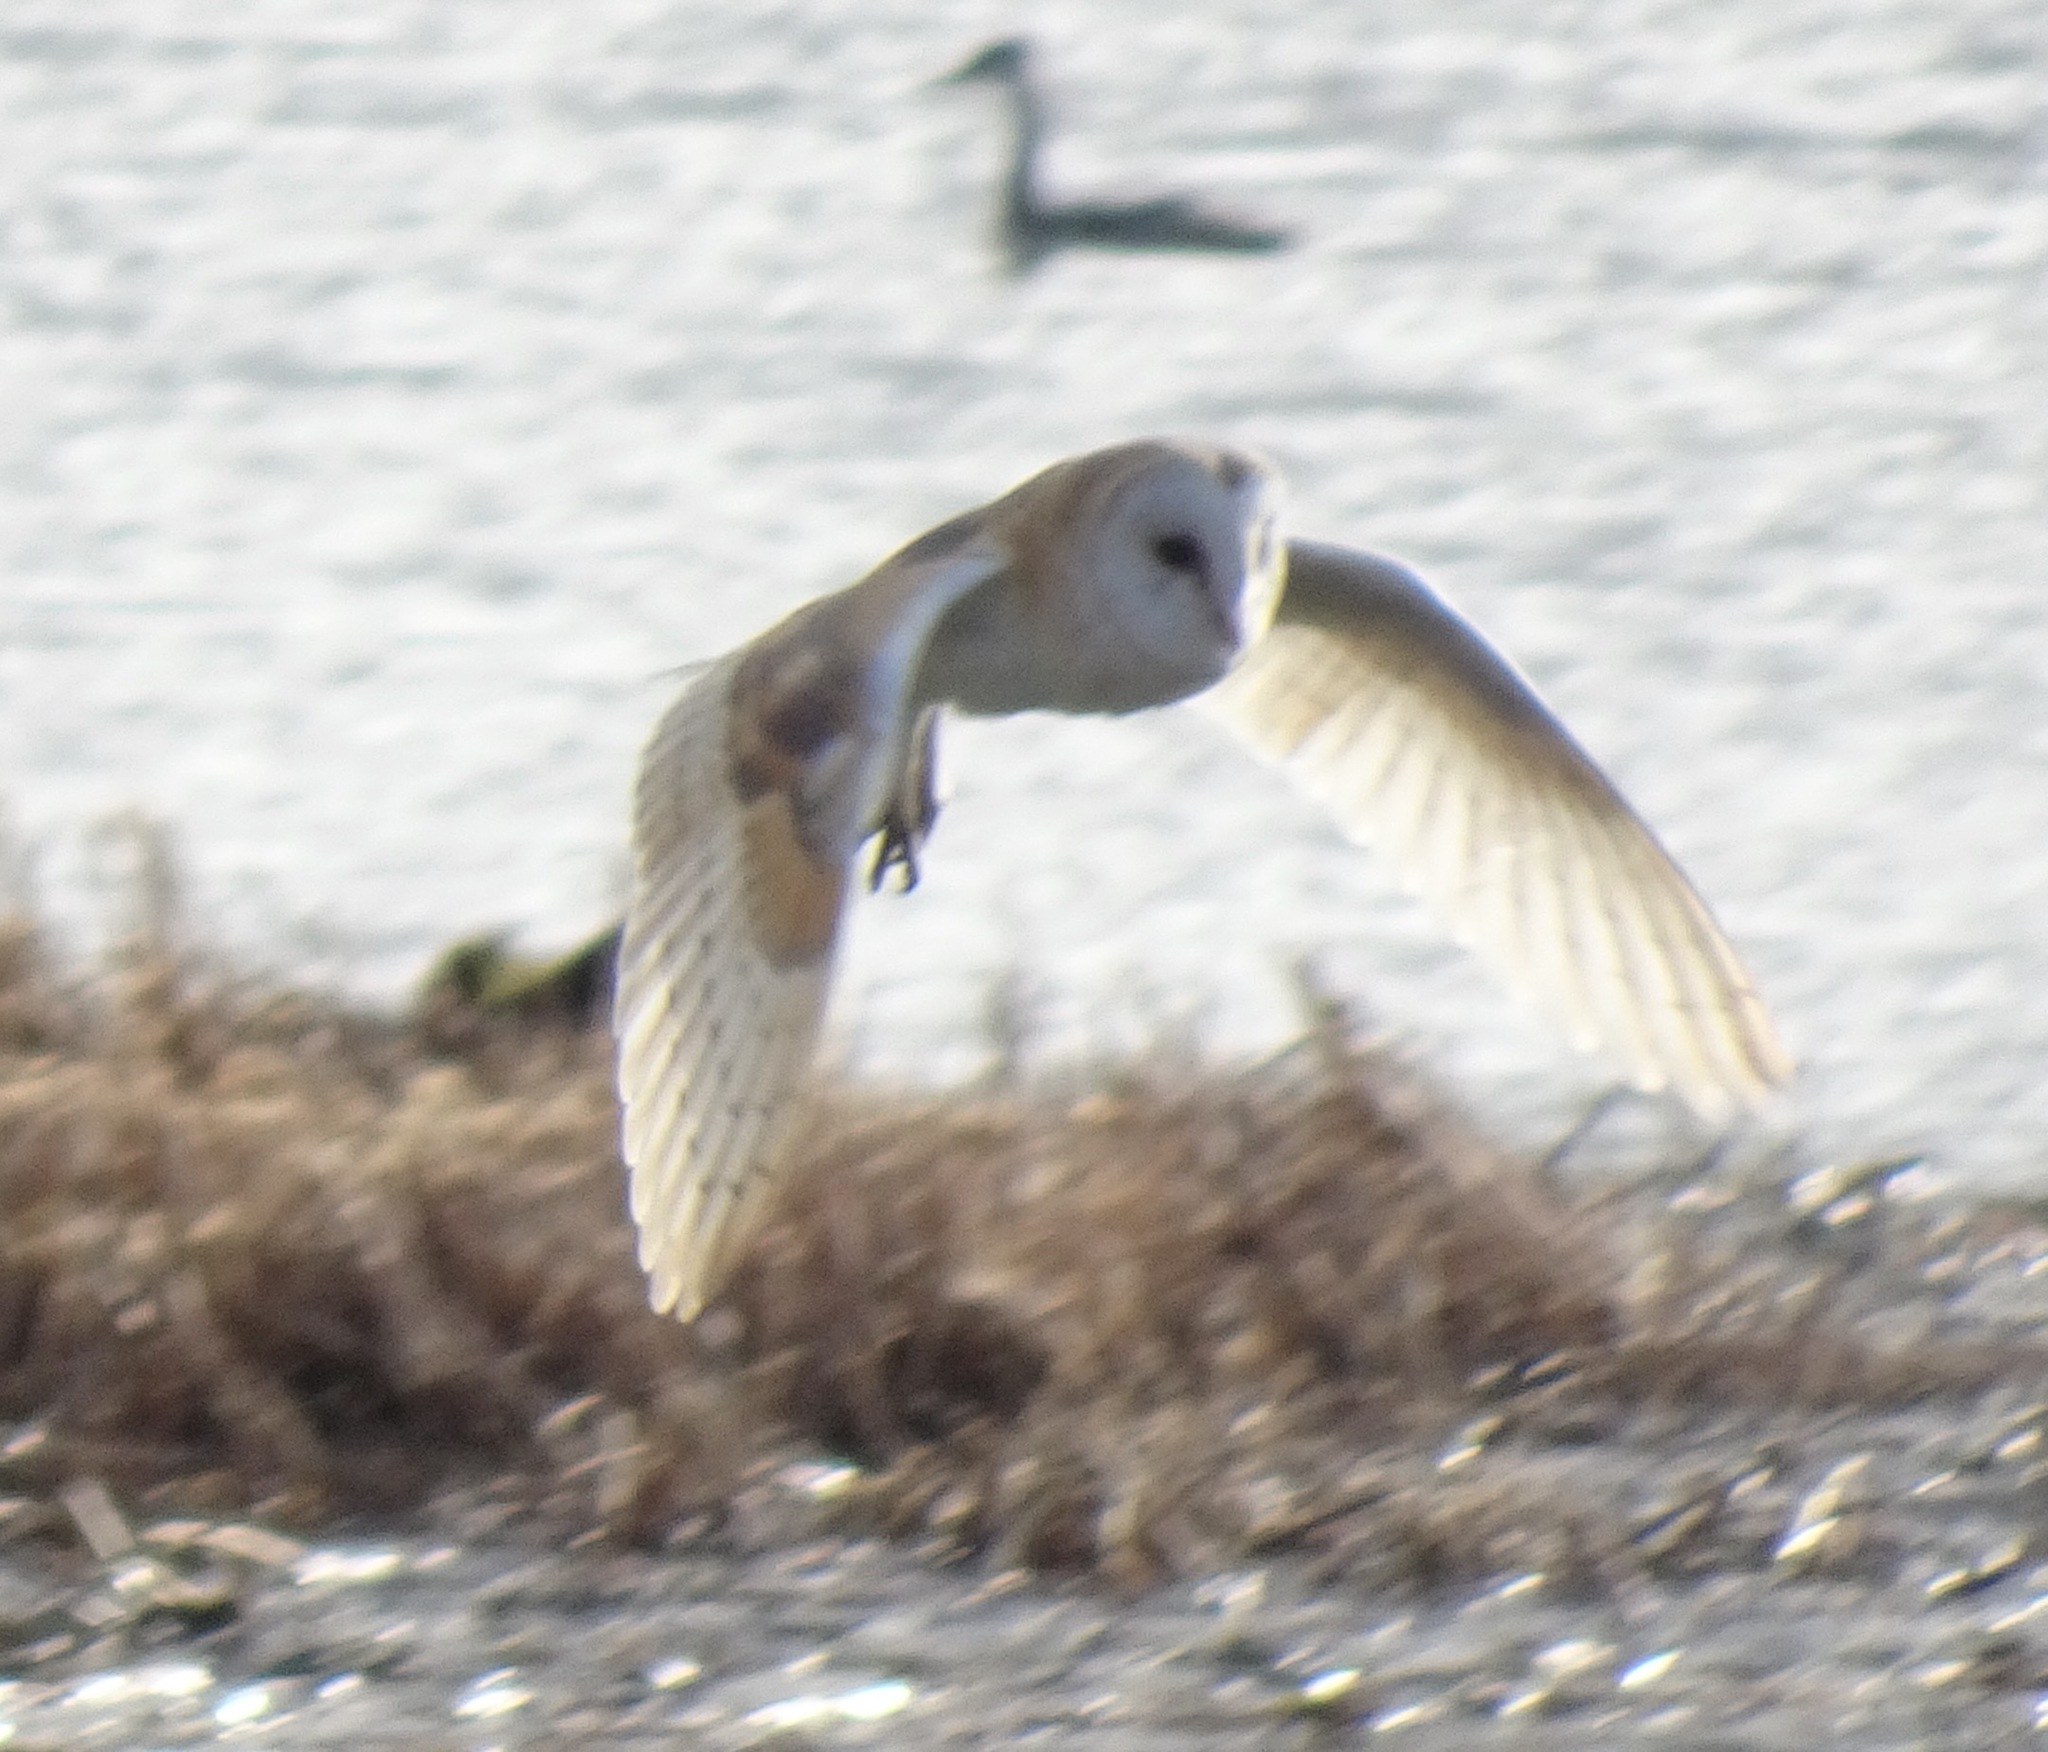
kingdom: Animalia
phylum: Chordata
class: Aves
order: Strigiformes
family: Tytonidae
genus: Tyto
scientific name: Tyto alba
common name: Barn owl
